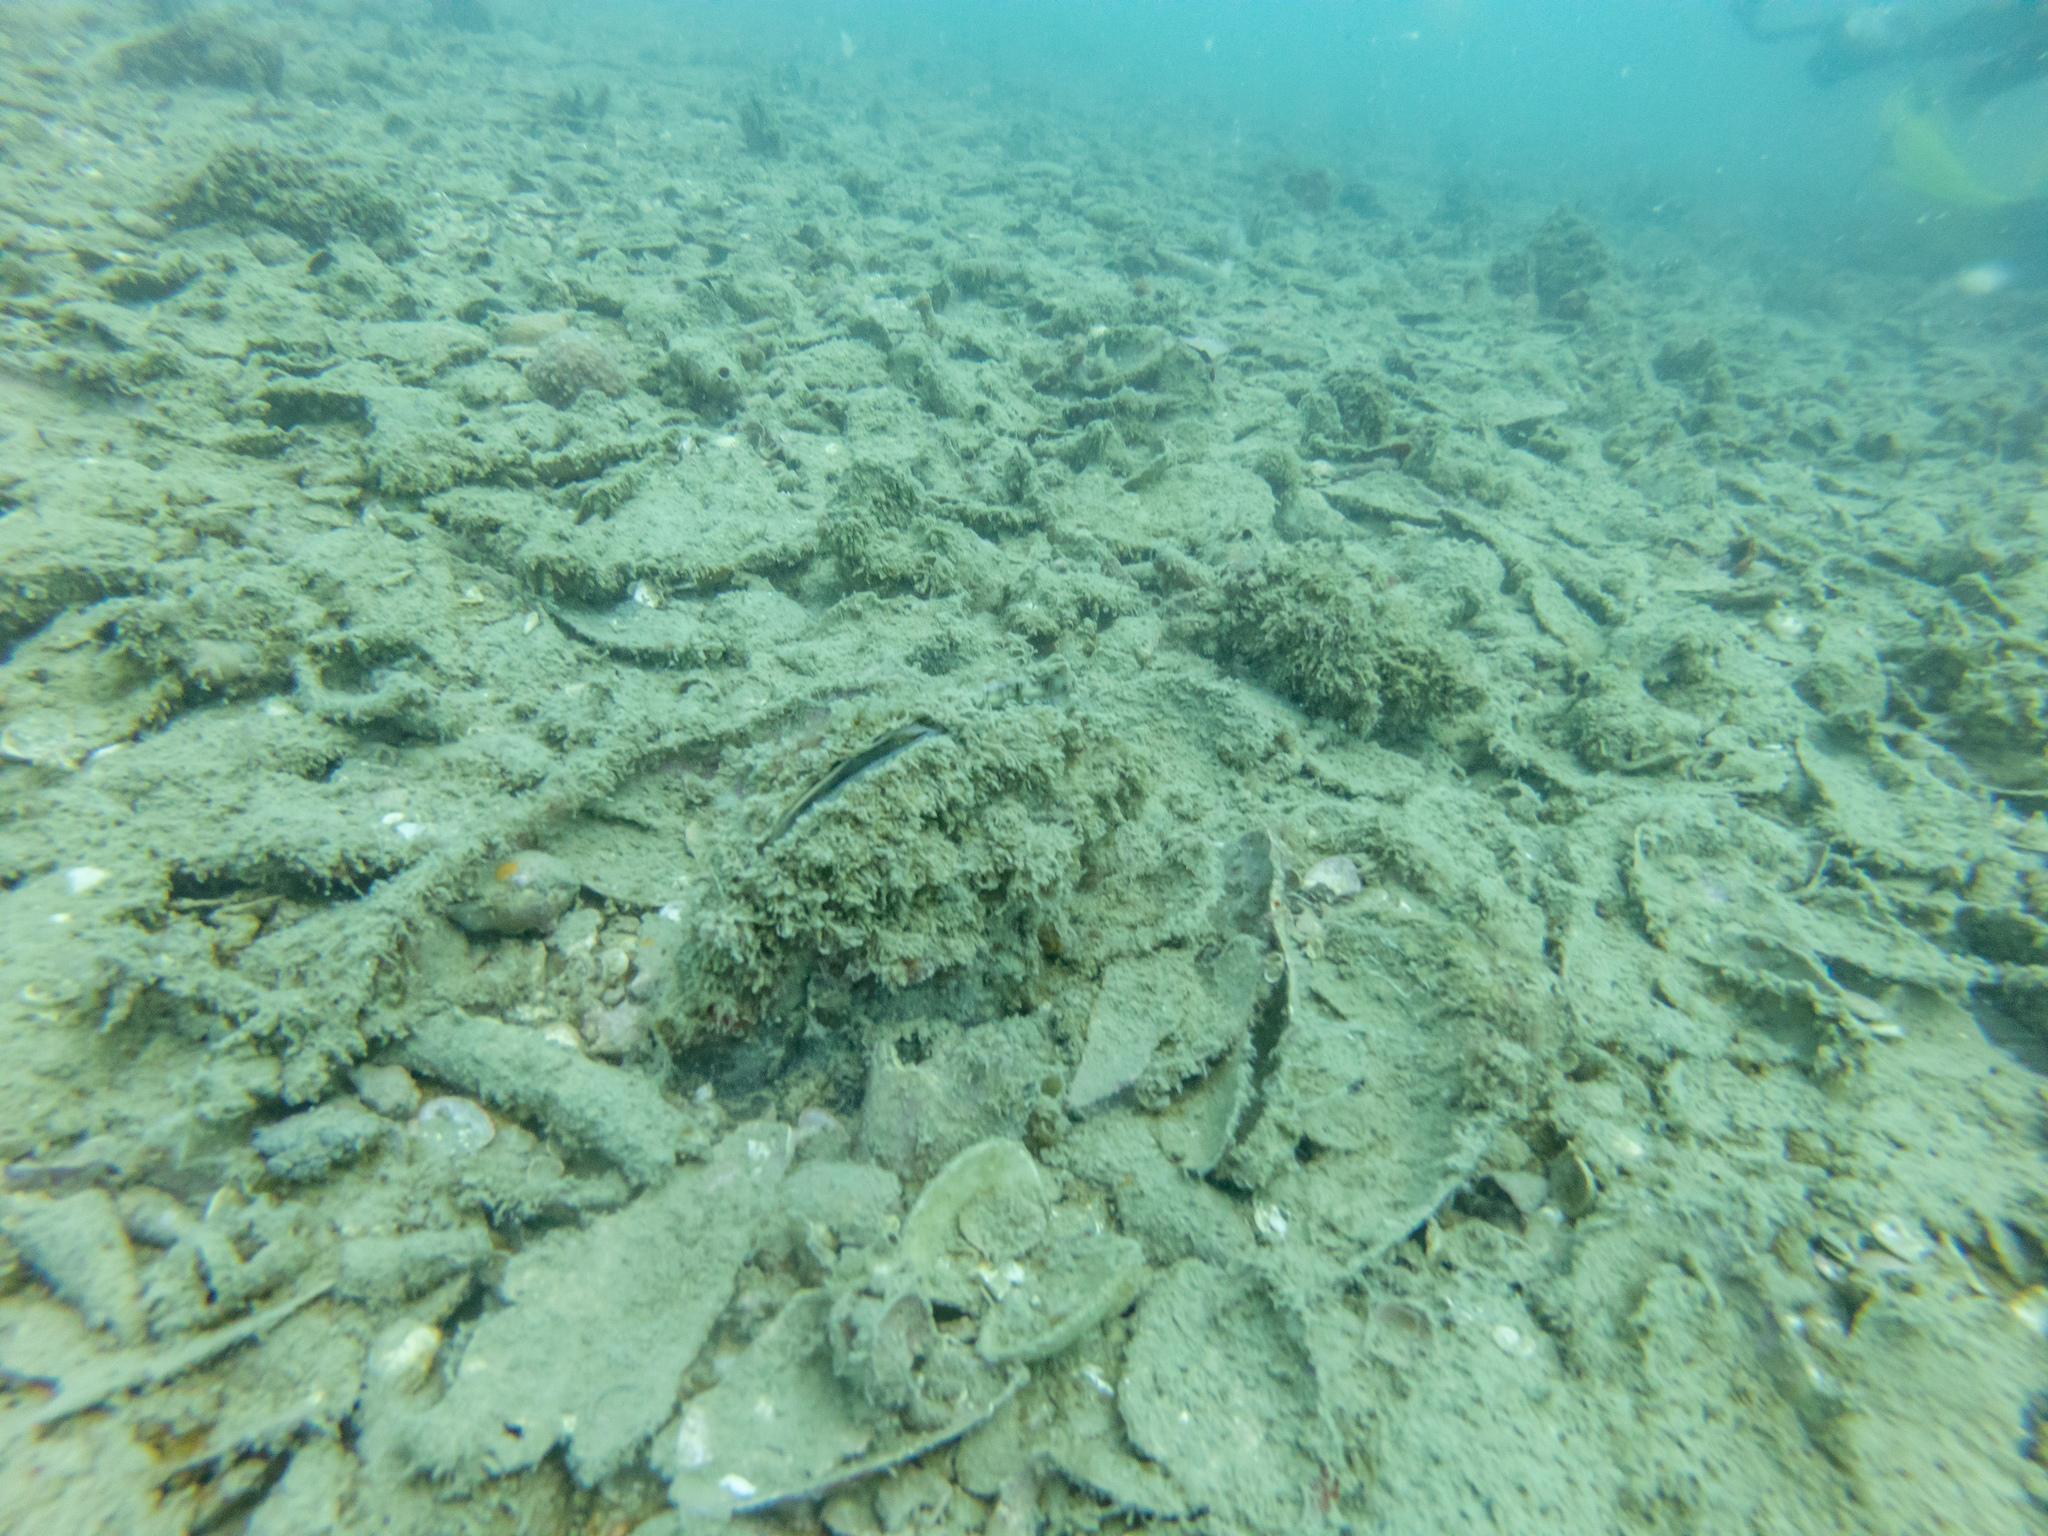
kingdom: Animalia
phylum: Mollusca
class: Bivalvia
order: Ostreida
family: Pinnidae
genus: Atrina
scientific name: Atrina zelandica
